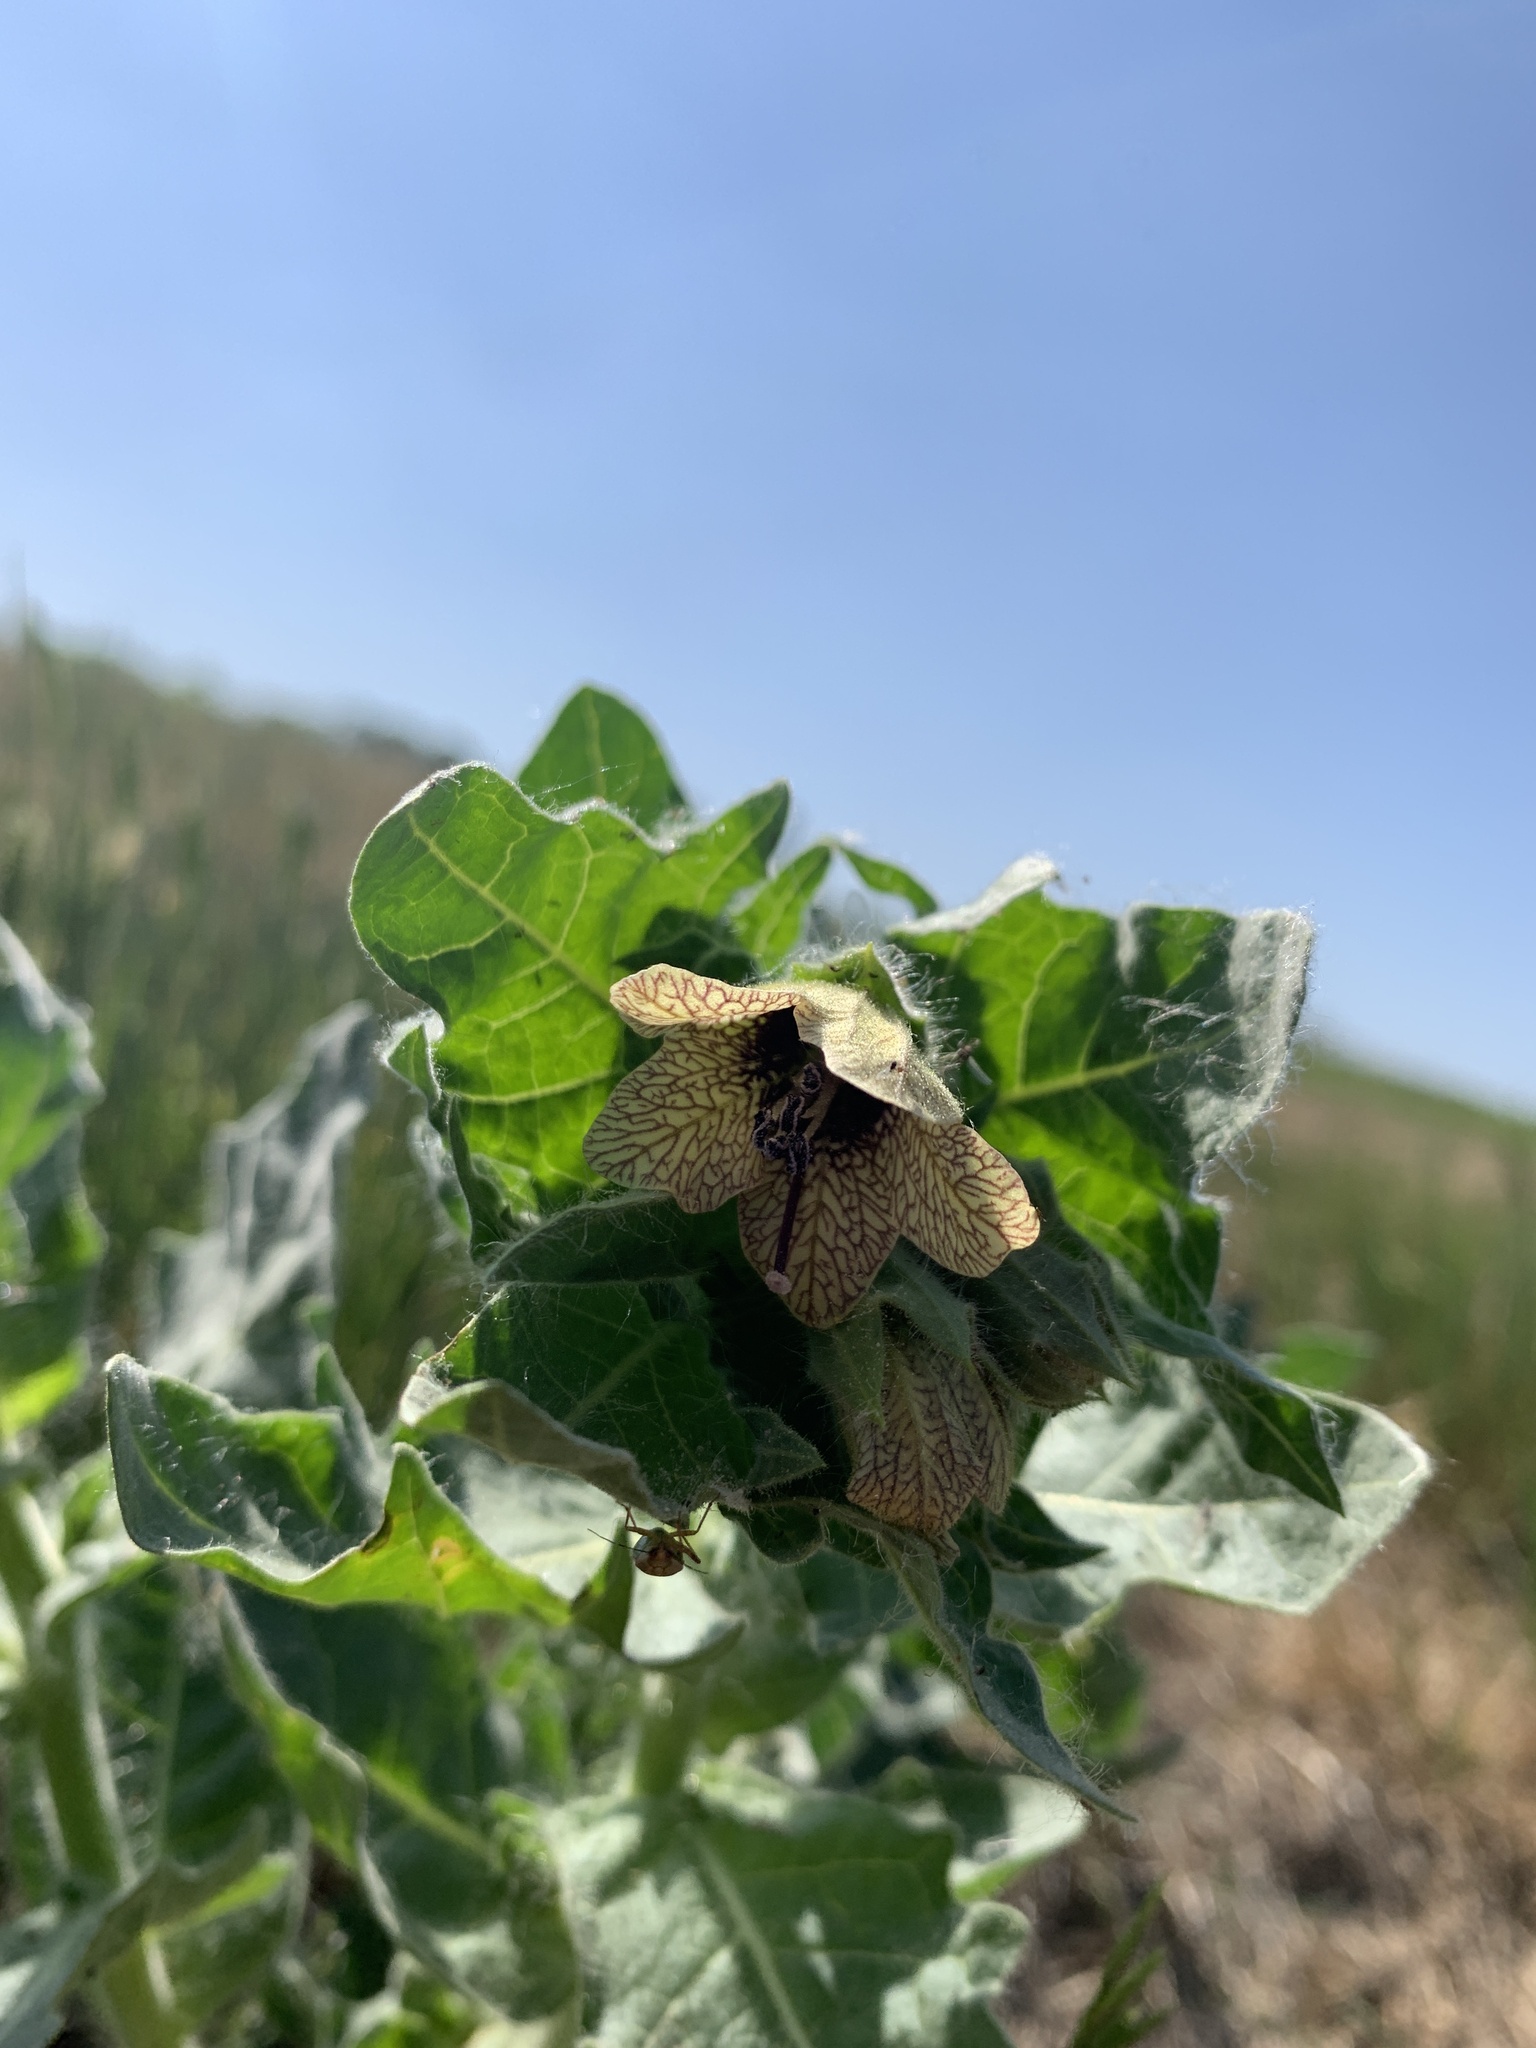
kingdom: Plantae
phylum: Tracheophyta
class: Magnoliopsida
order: Solanales
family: Solanaceae
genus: Hyoscyamus
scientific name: Hyoscyamus niger
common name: Henbane
